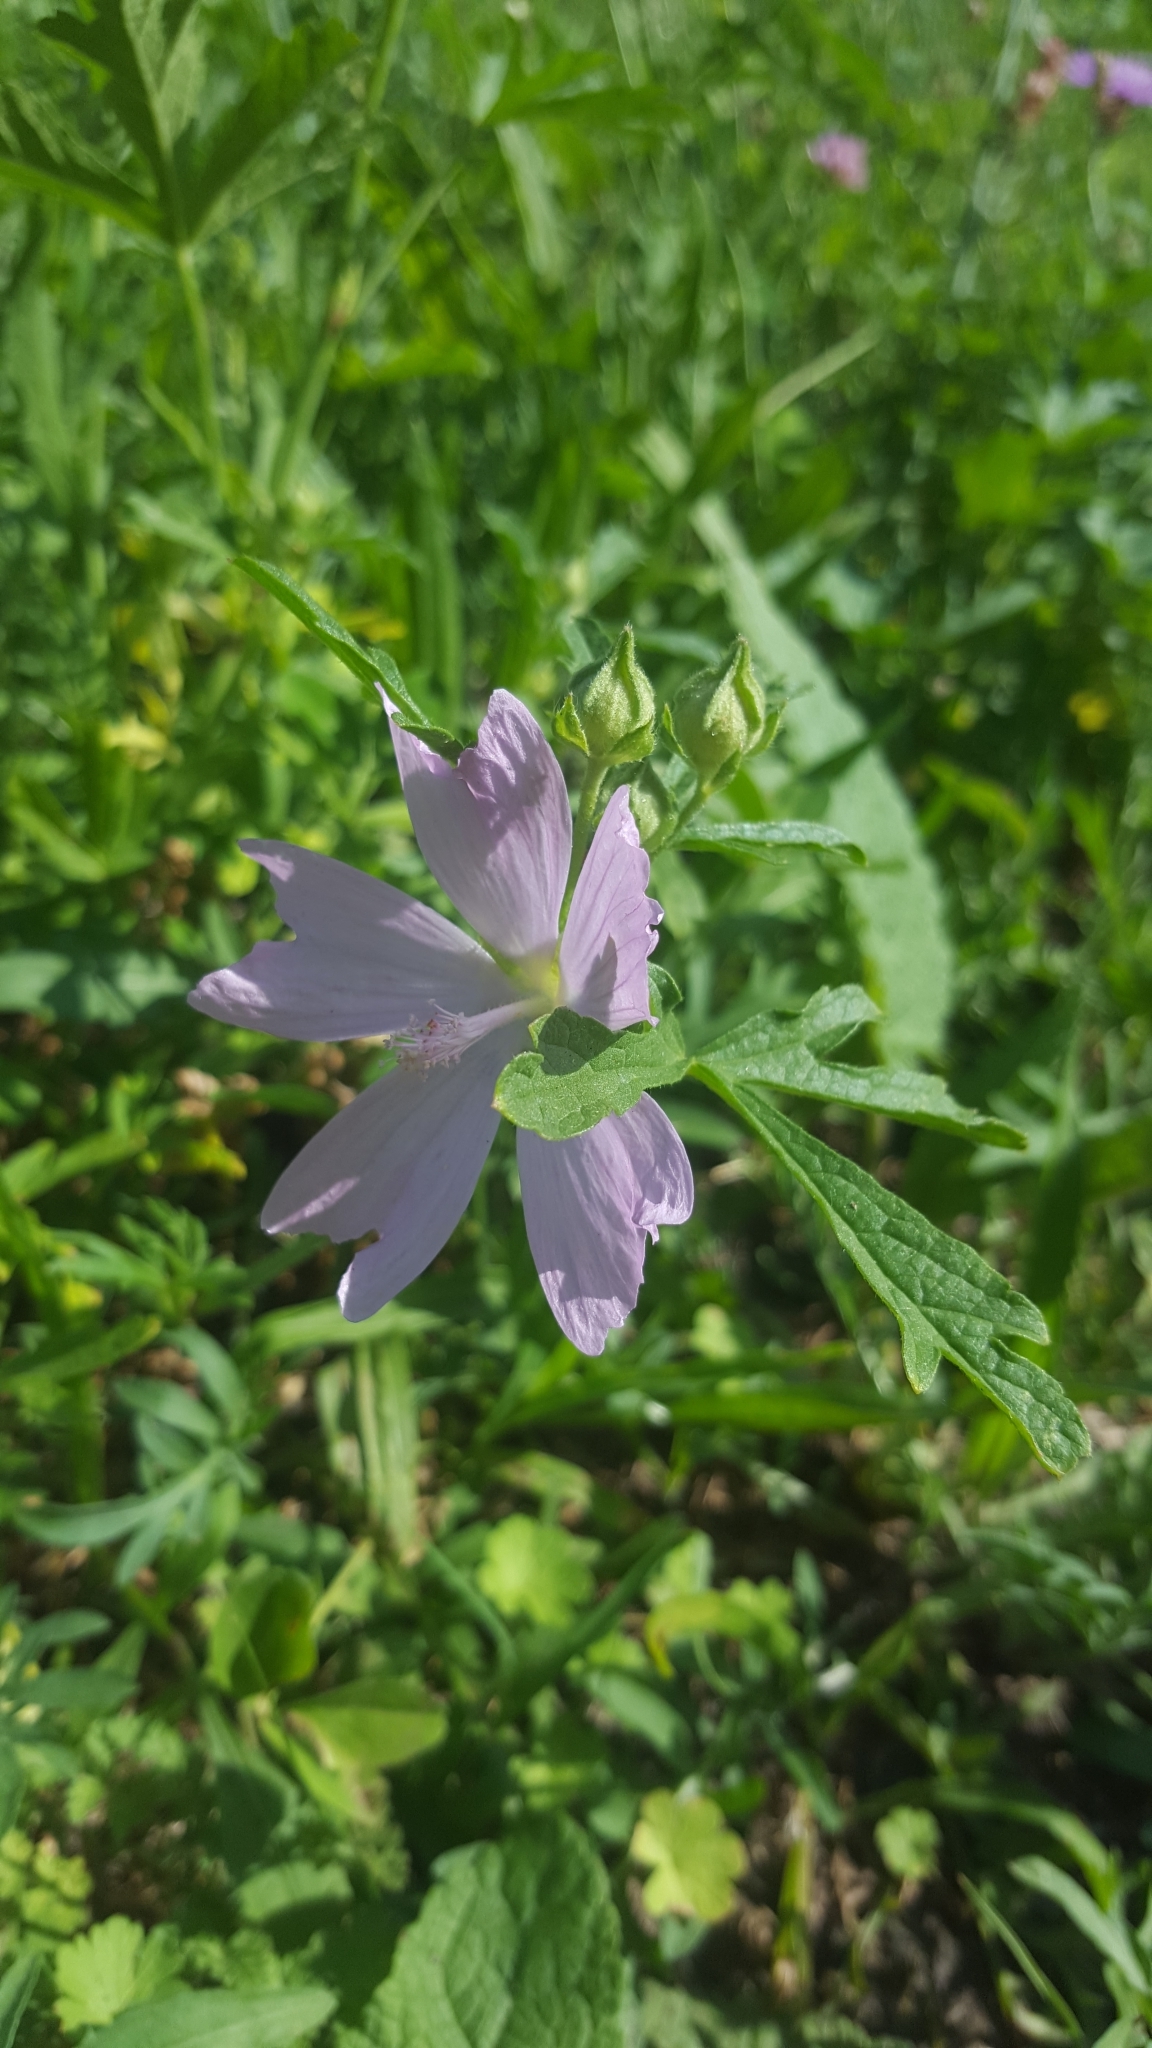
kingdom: Plantae
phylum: Tracheophyta
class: Magnoliopsida
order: Malvales
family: Malvaceae
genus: Malva
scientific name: Malva alcea
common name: Greater musk-mallow
